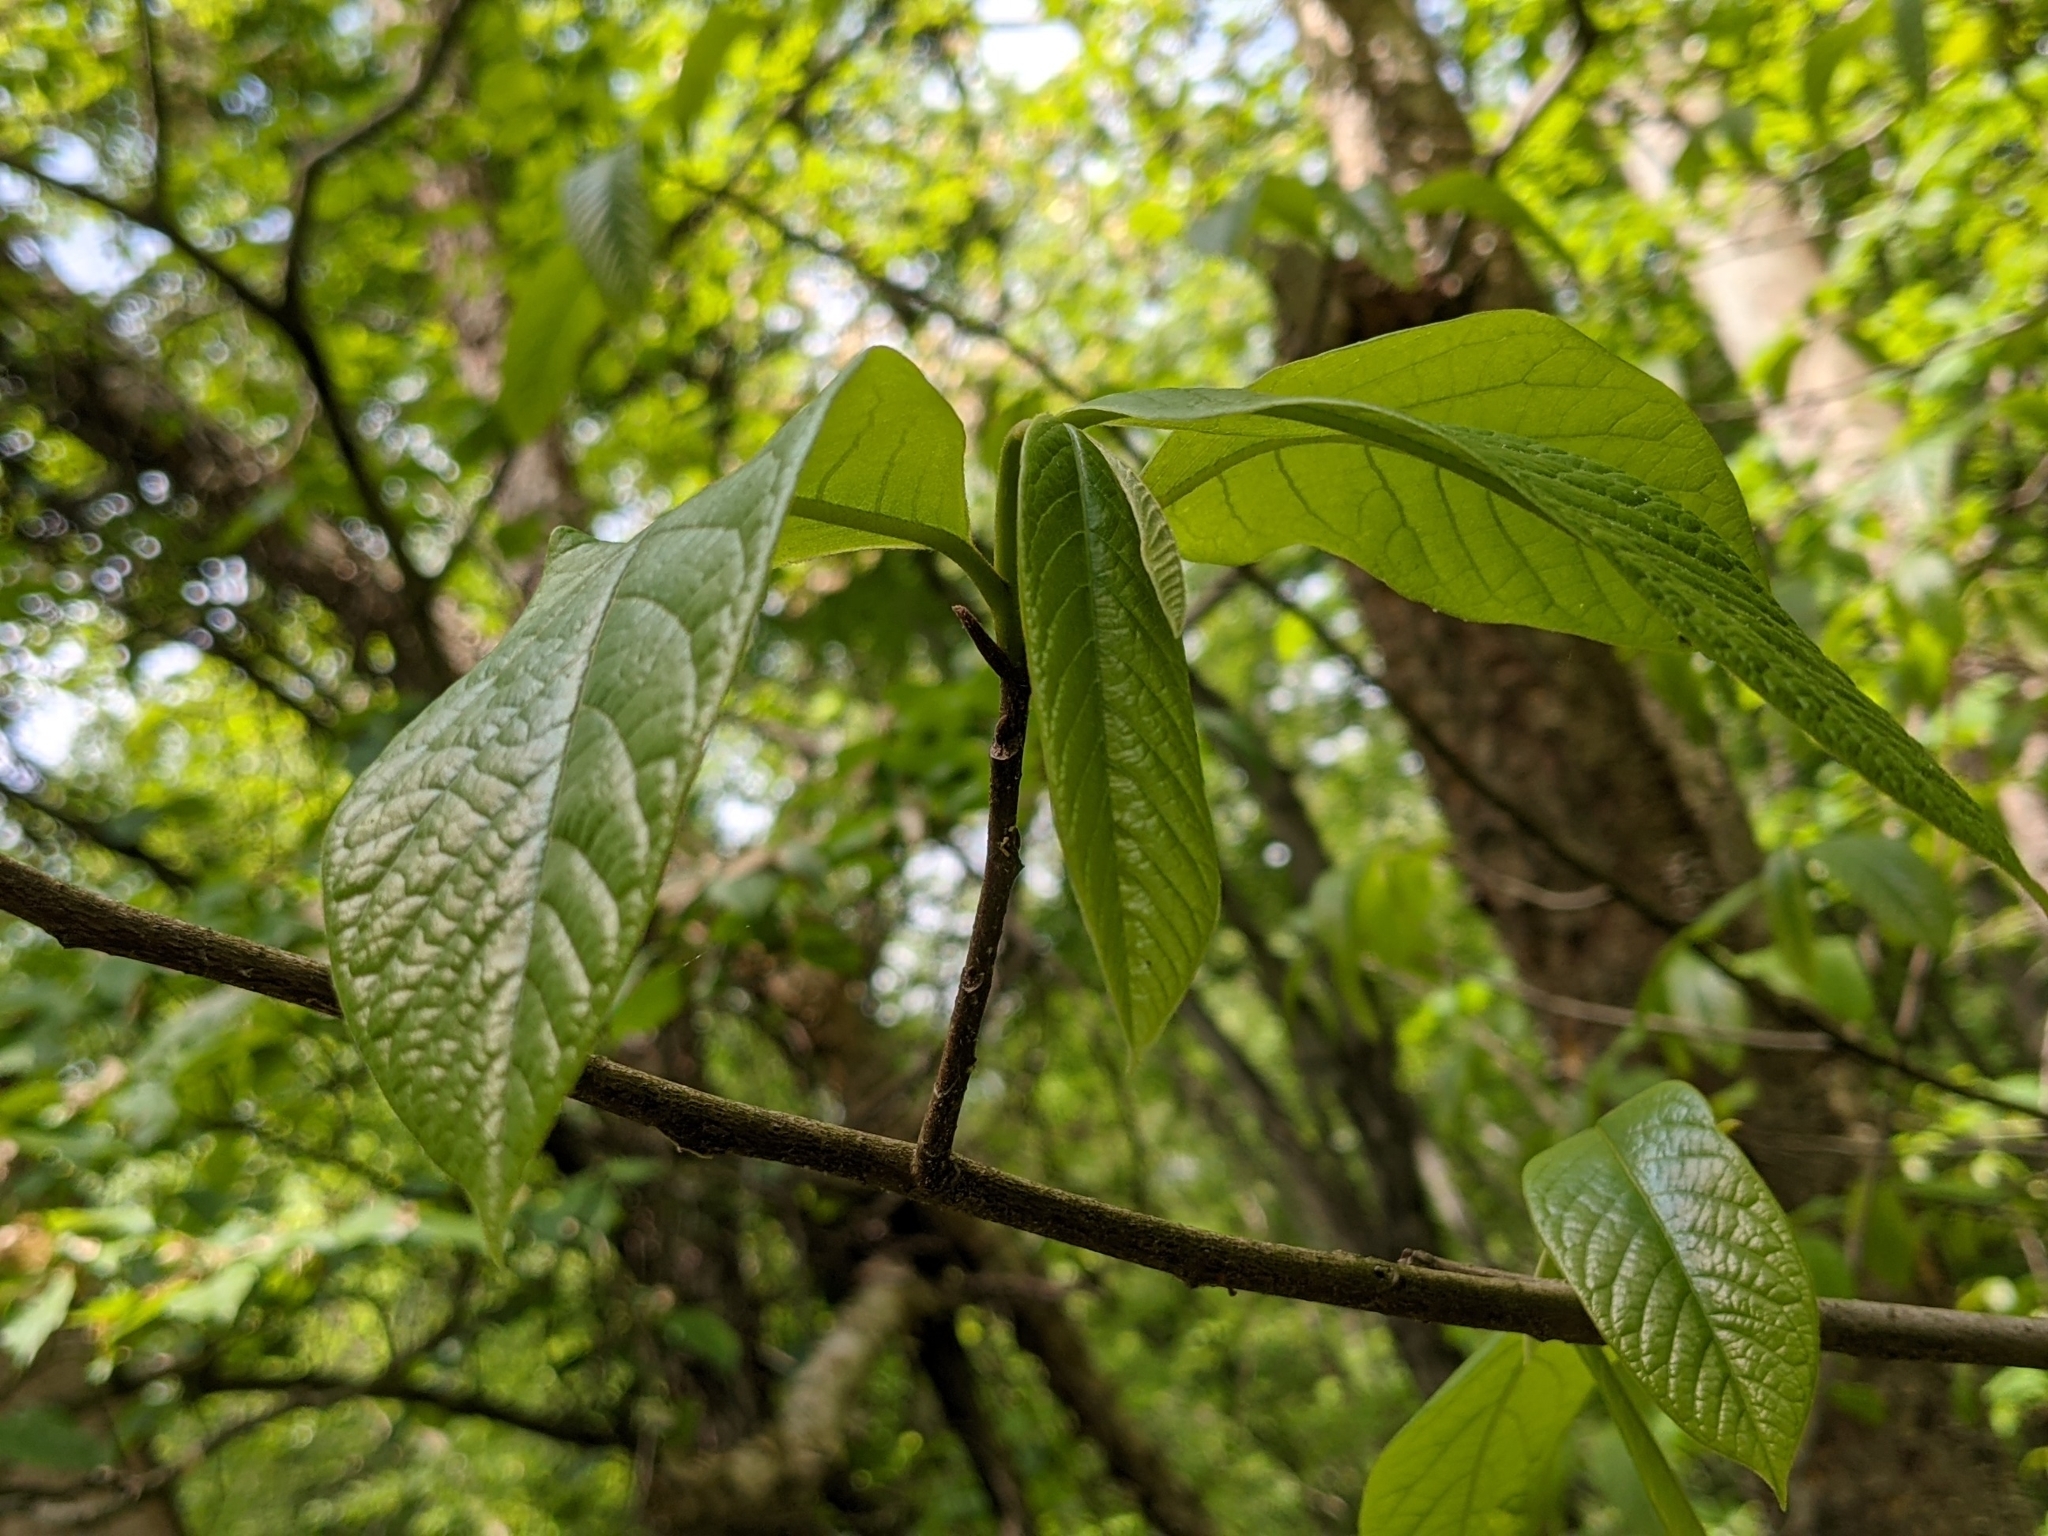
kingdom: Plantae
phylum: Tracheophyta
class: Magnoliopsida
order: Magnoliales
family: Annonaceae
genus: Asimina
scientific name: Asimina triloba
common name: Dog-banana
